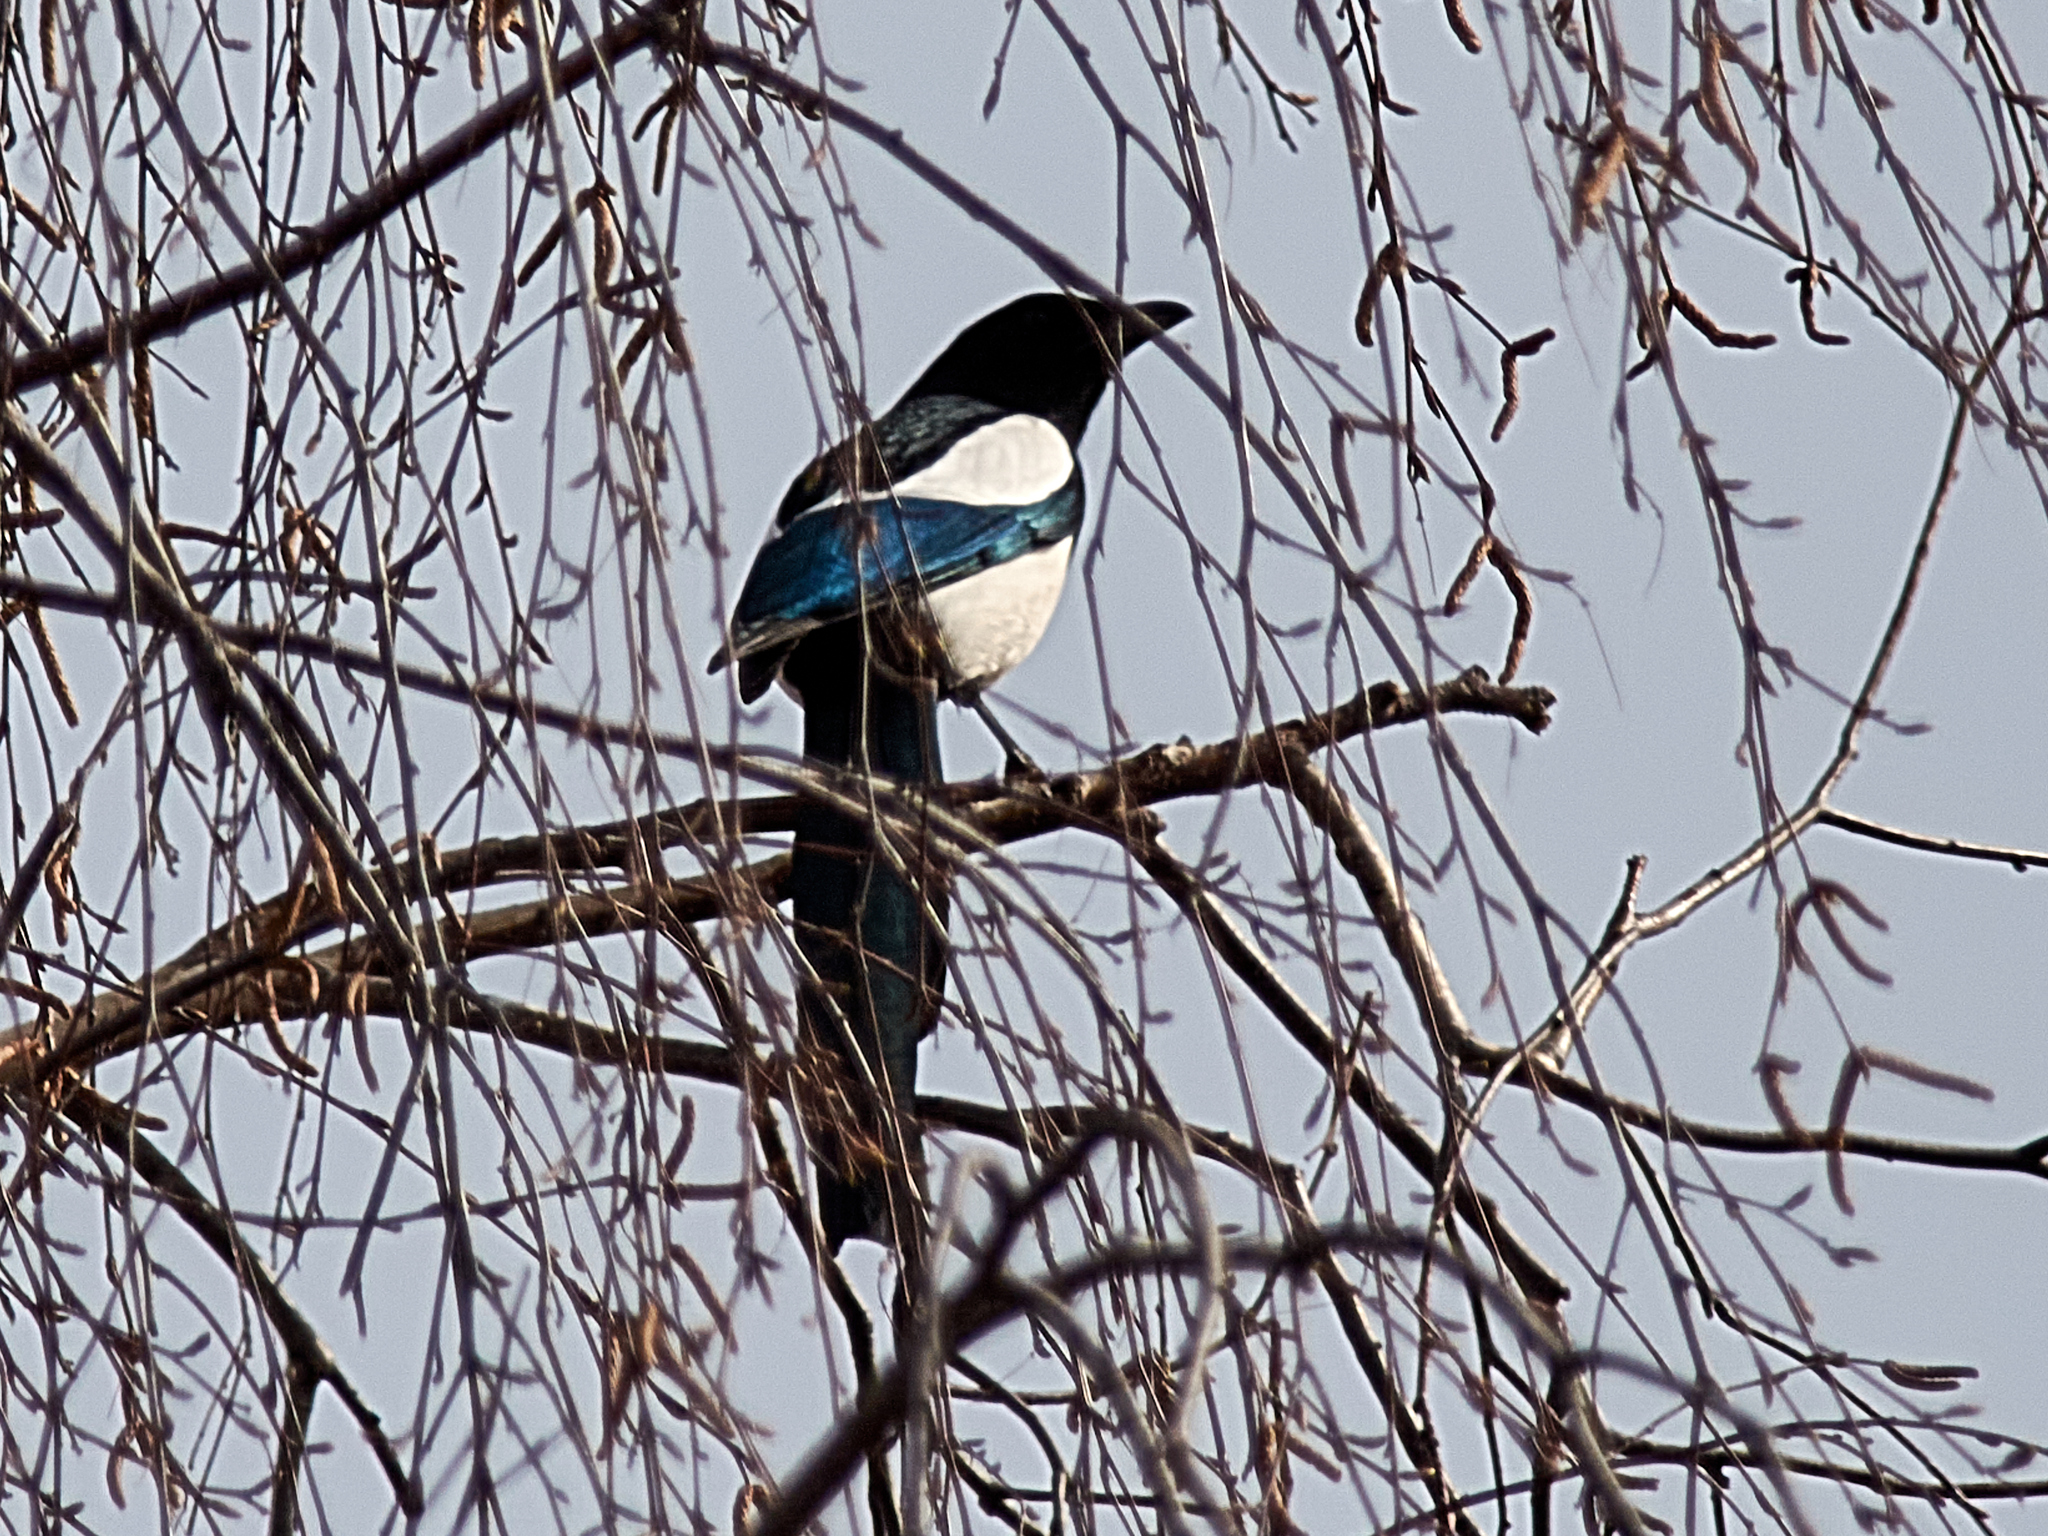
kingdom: Animalia
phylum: Chordata
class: Aves
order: Passeriformes
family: Corvidae
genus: Pica
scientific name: Pica pica
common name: Eurasian magpie
